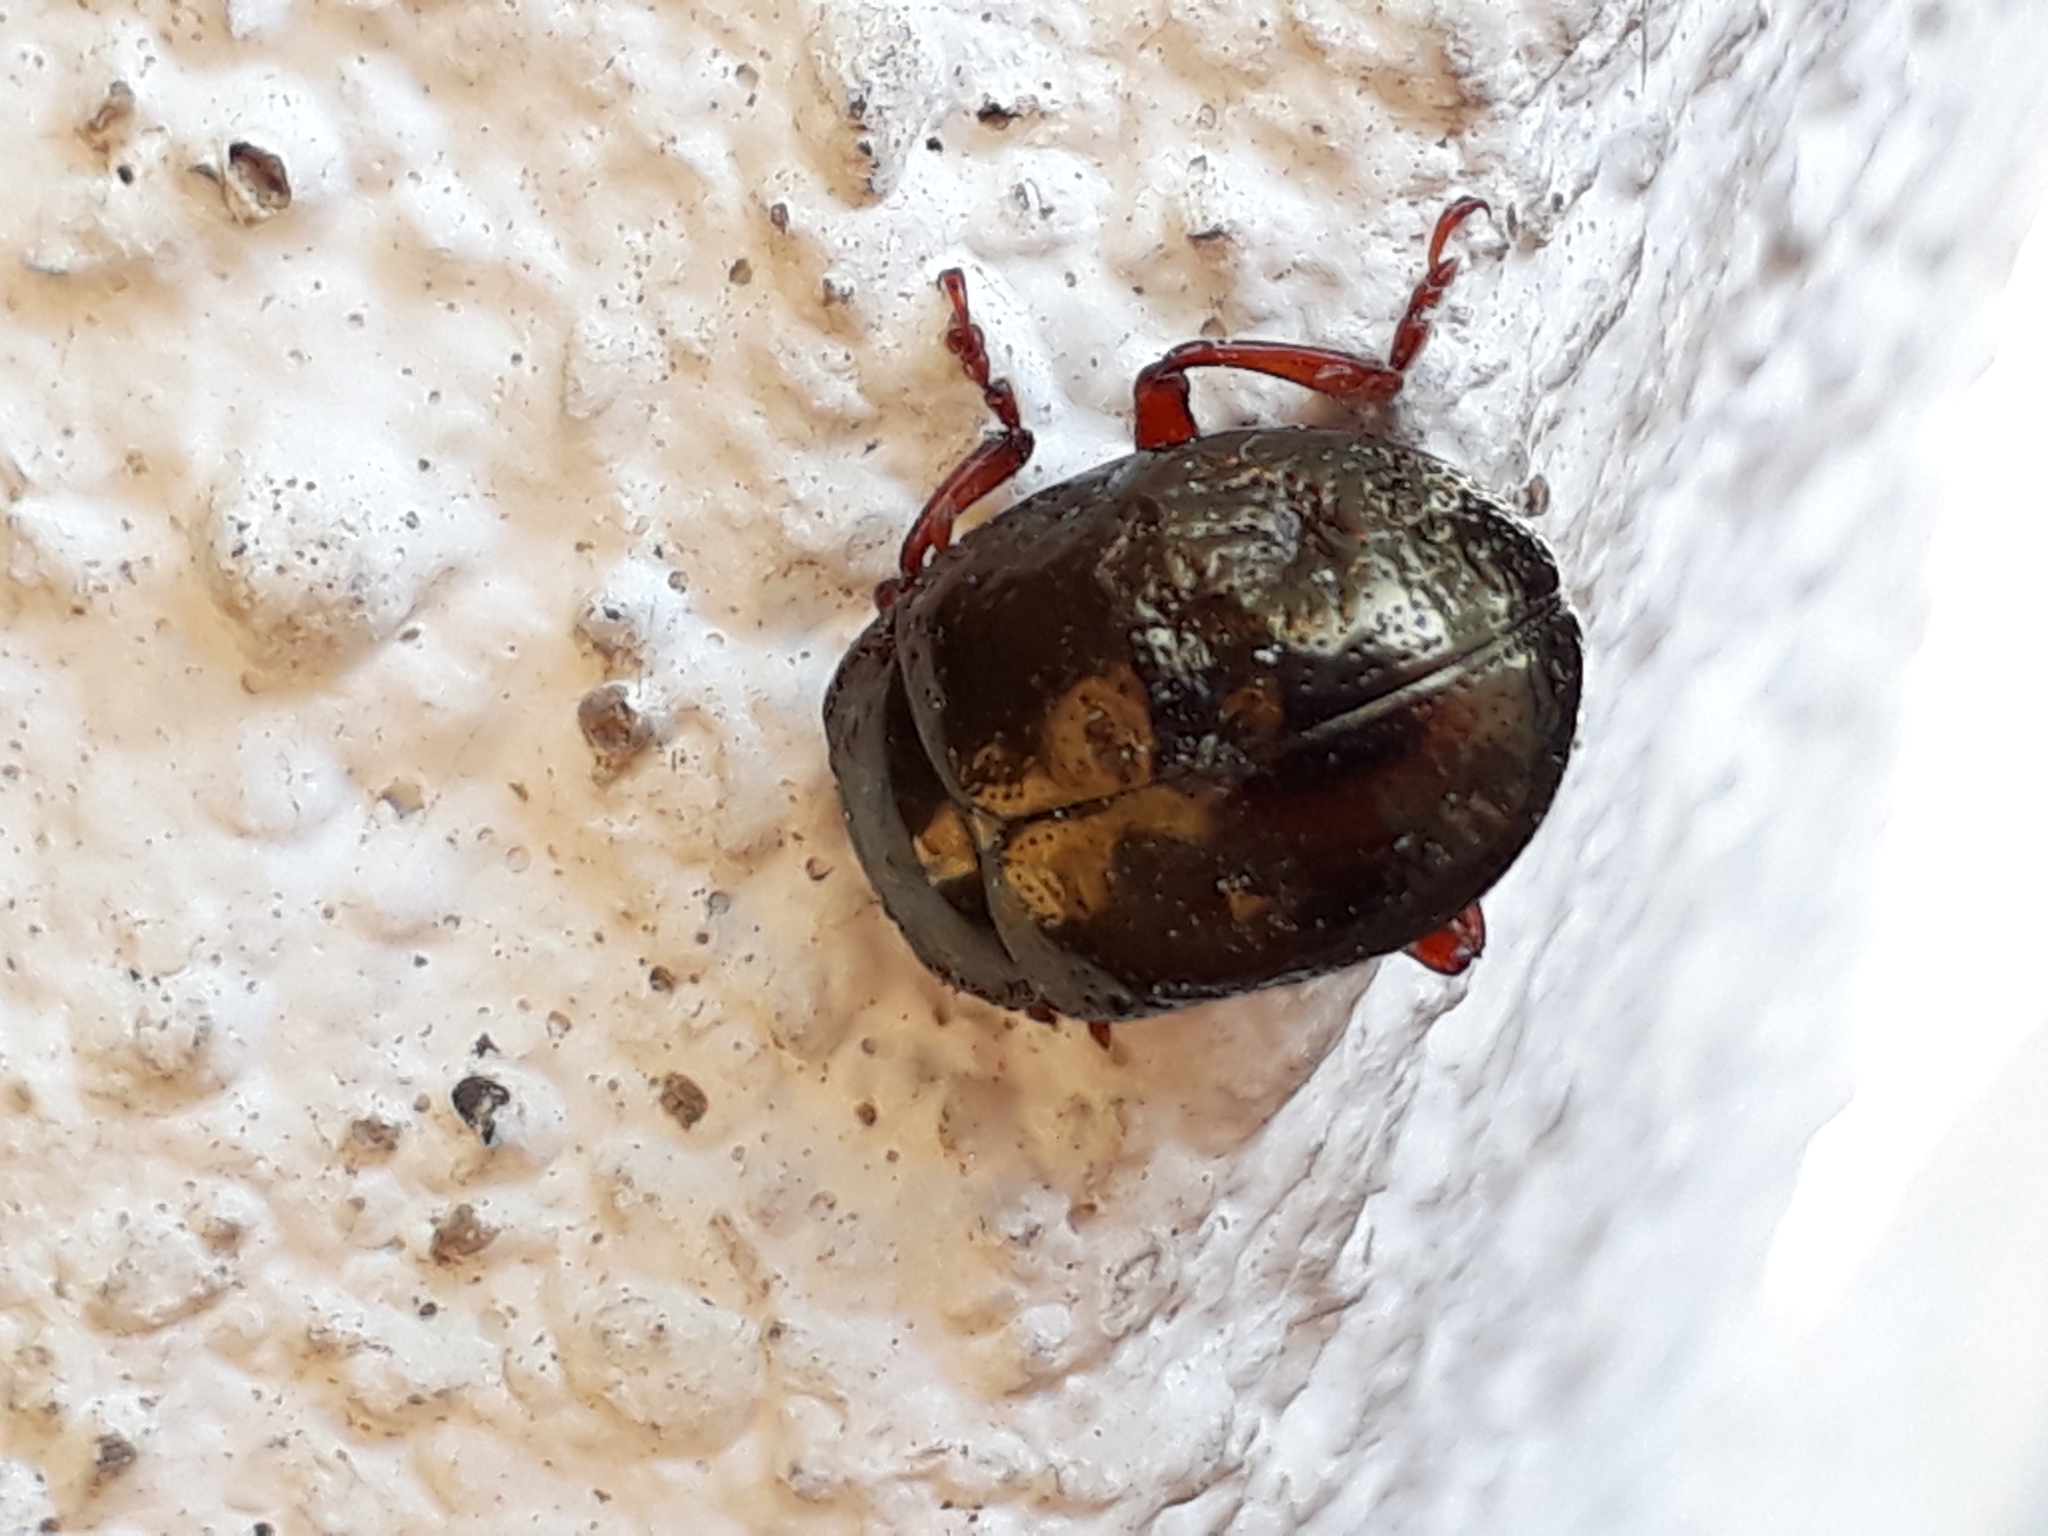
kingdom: Animalia
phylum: Arthropoda
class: Insecta
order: Coleoptera
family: Chrysomelidae
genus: Chrysolina
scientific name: Chrysolina bankii
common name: Leaf beetle
